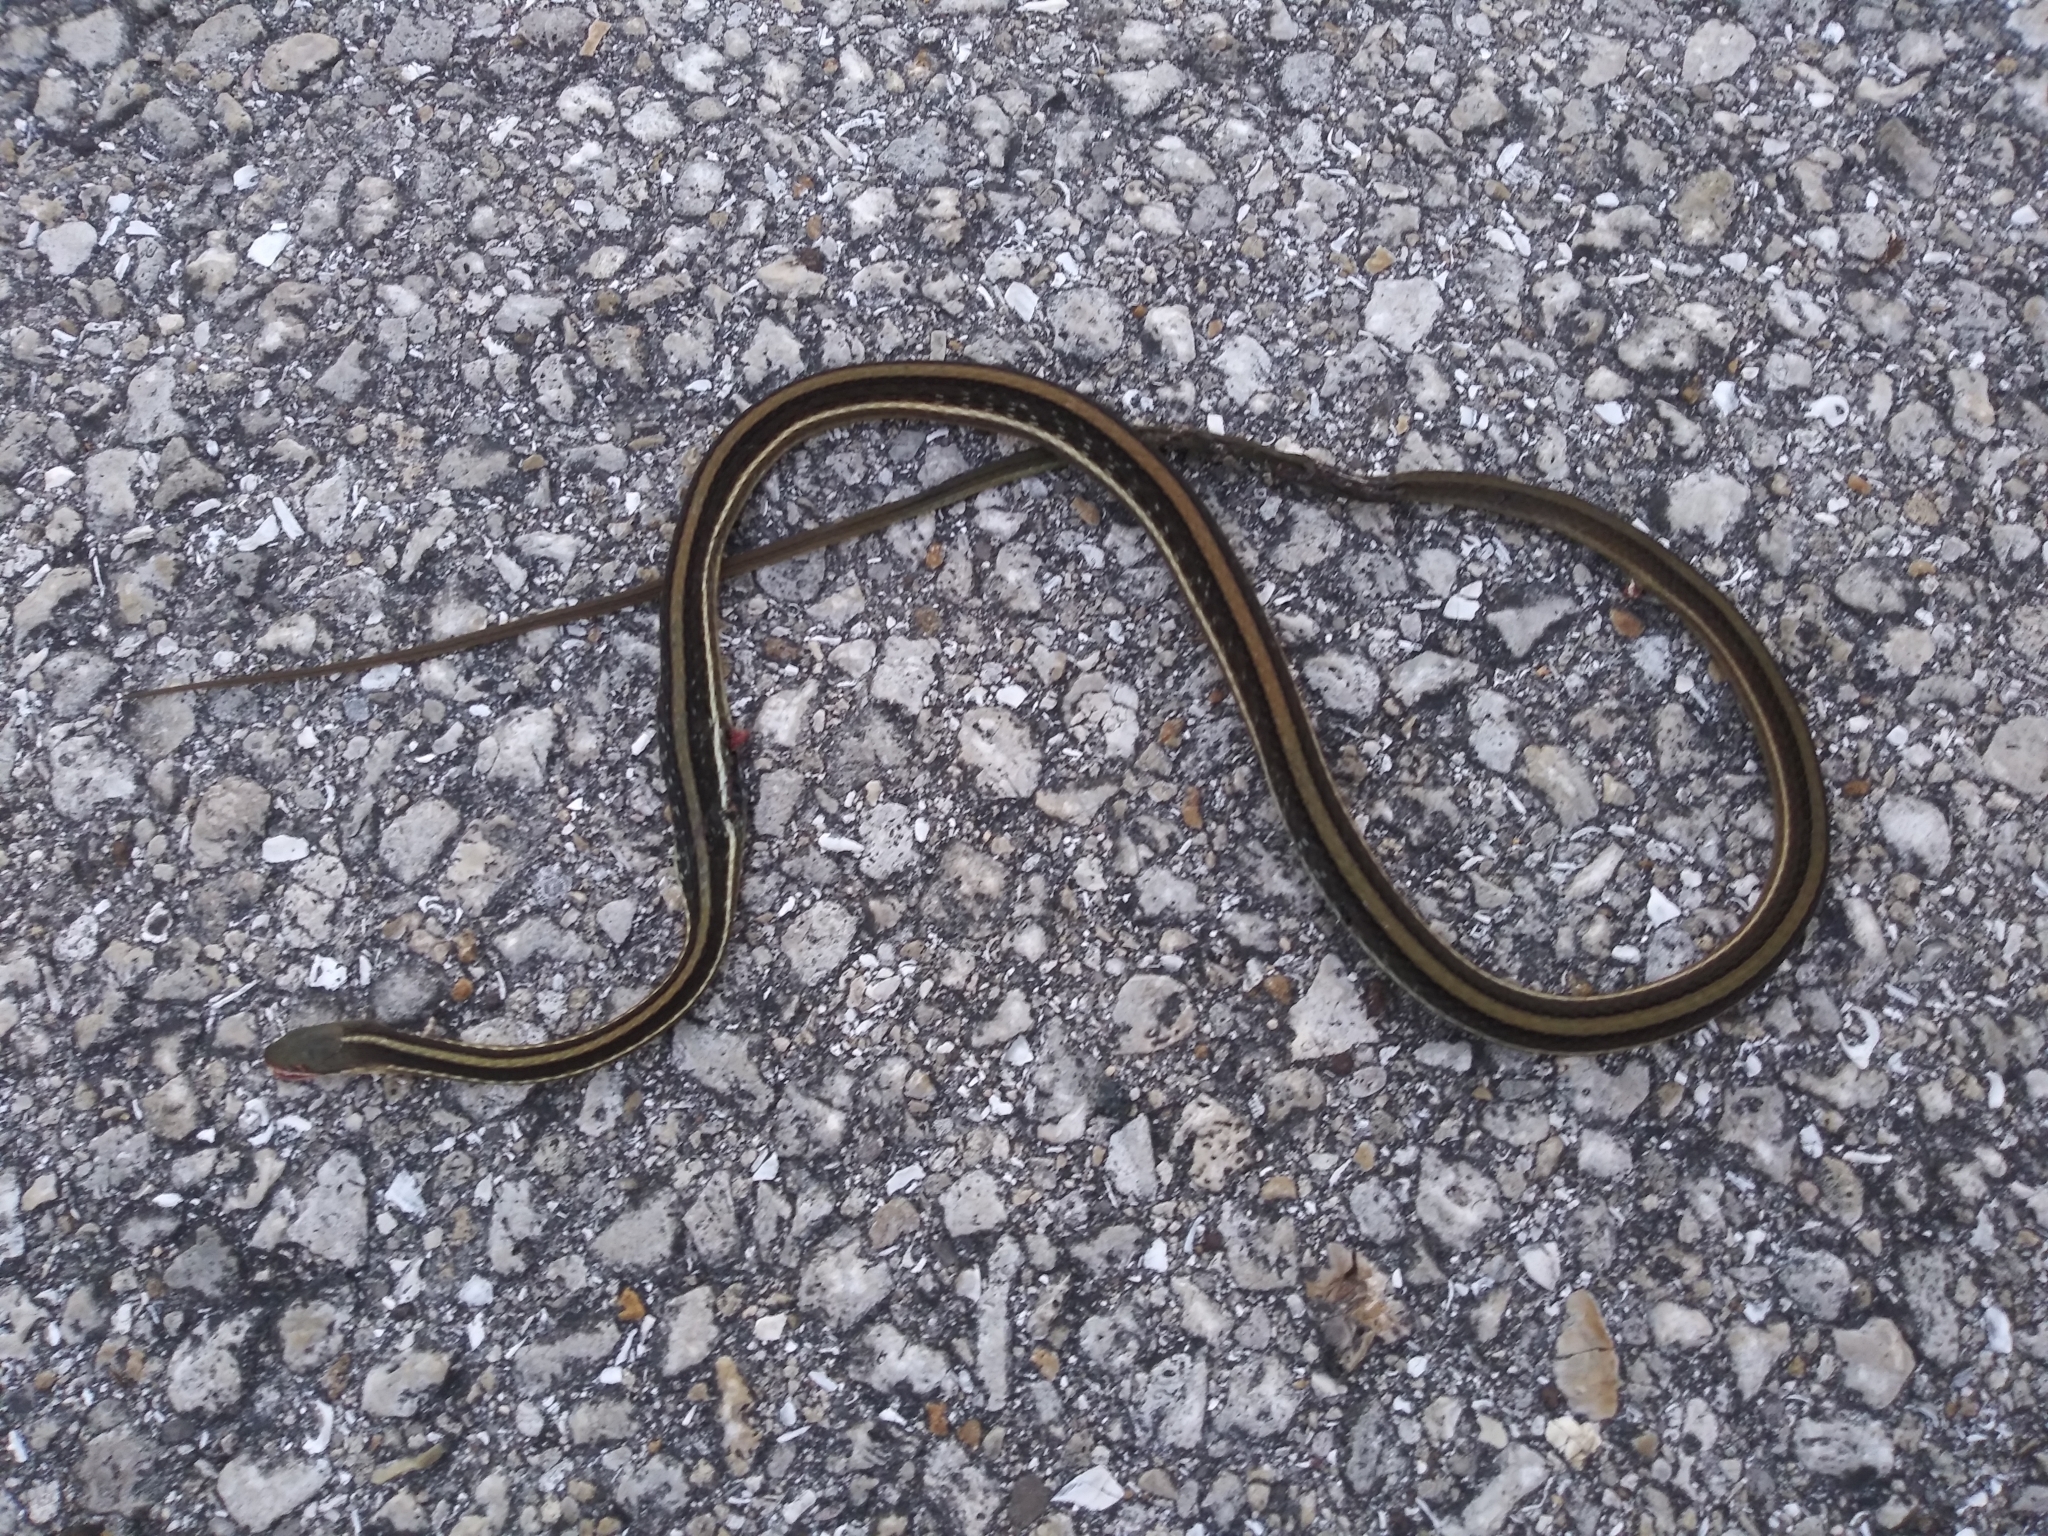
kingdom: Animalia
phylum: Chordata
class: Squamata
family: Colubridae
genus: Thamnophis
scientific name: Thamnophis saurita
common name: Eastern ribbonsnake
